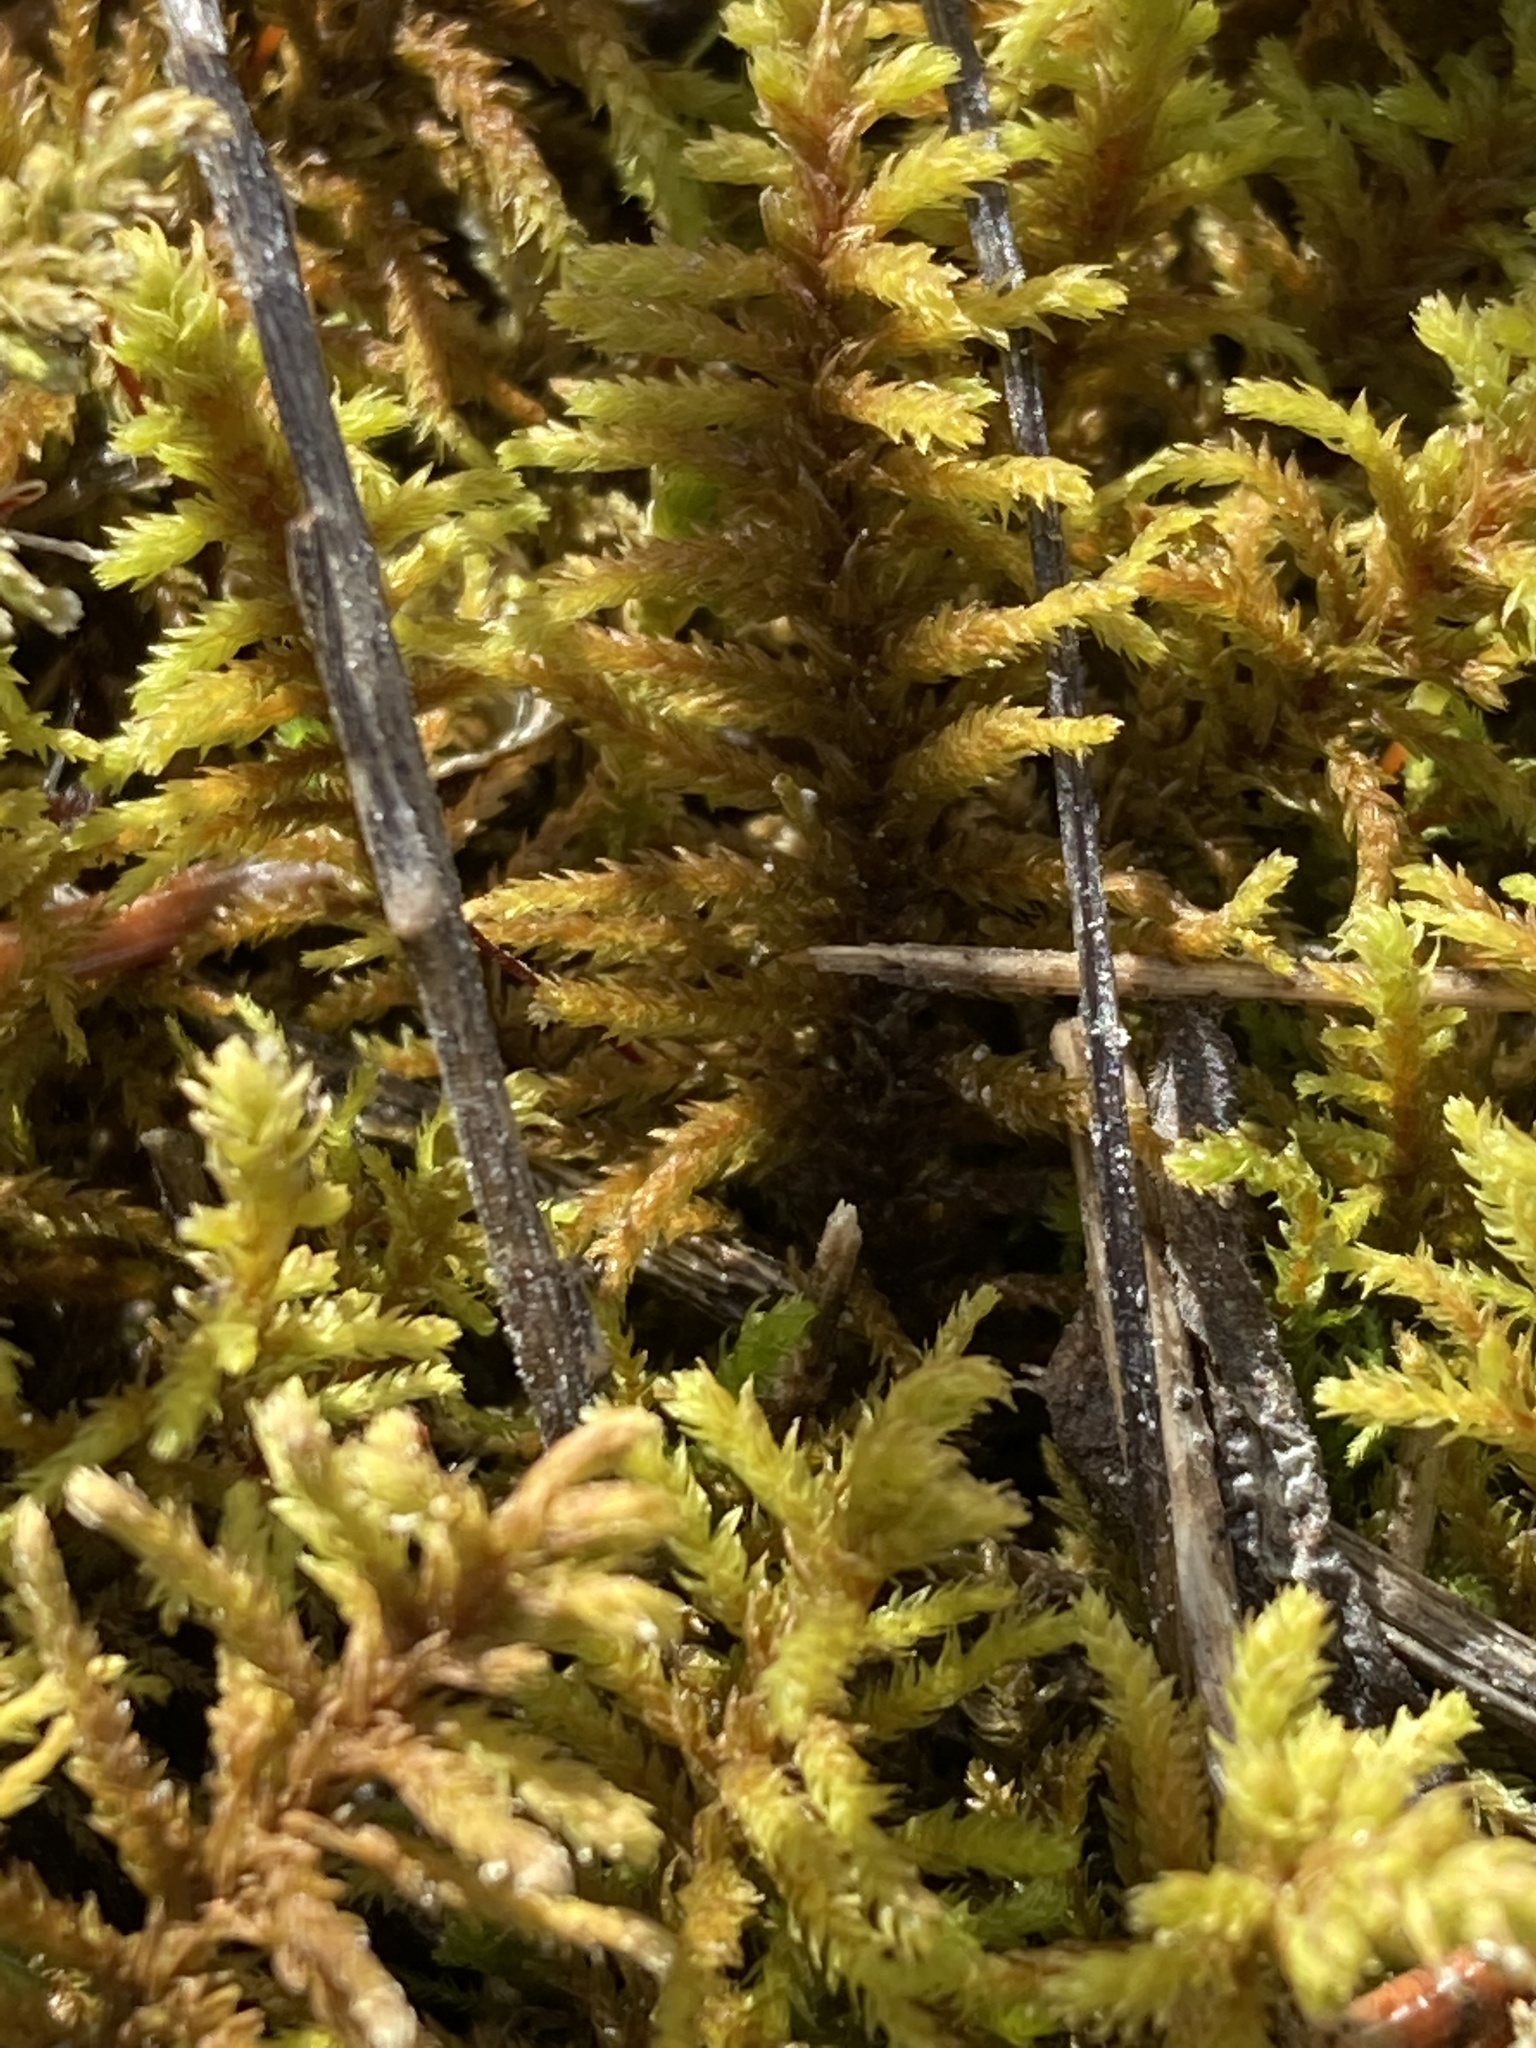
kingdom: Plantae
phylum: Bryophyta
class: Bryopsida
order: Hypnales
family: Thuidiaceae
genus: Abietinella
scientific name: Abietinella abietina
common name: Wiry fern moss
